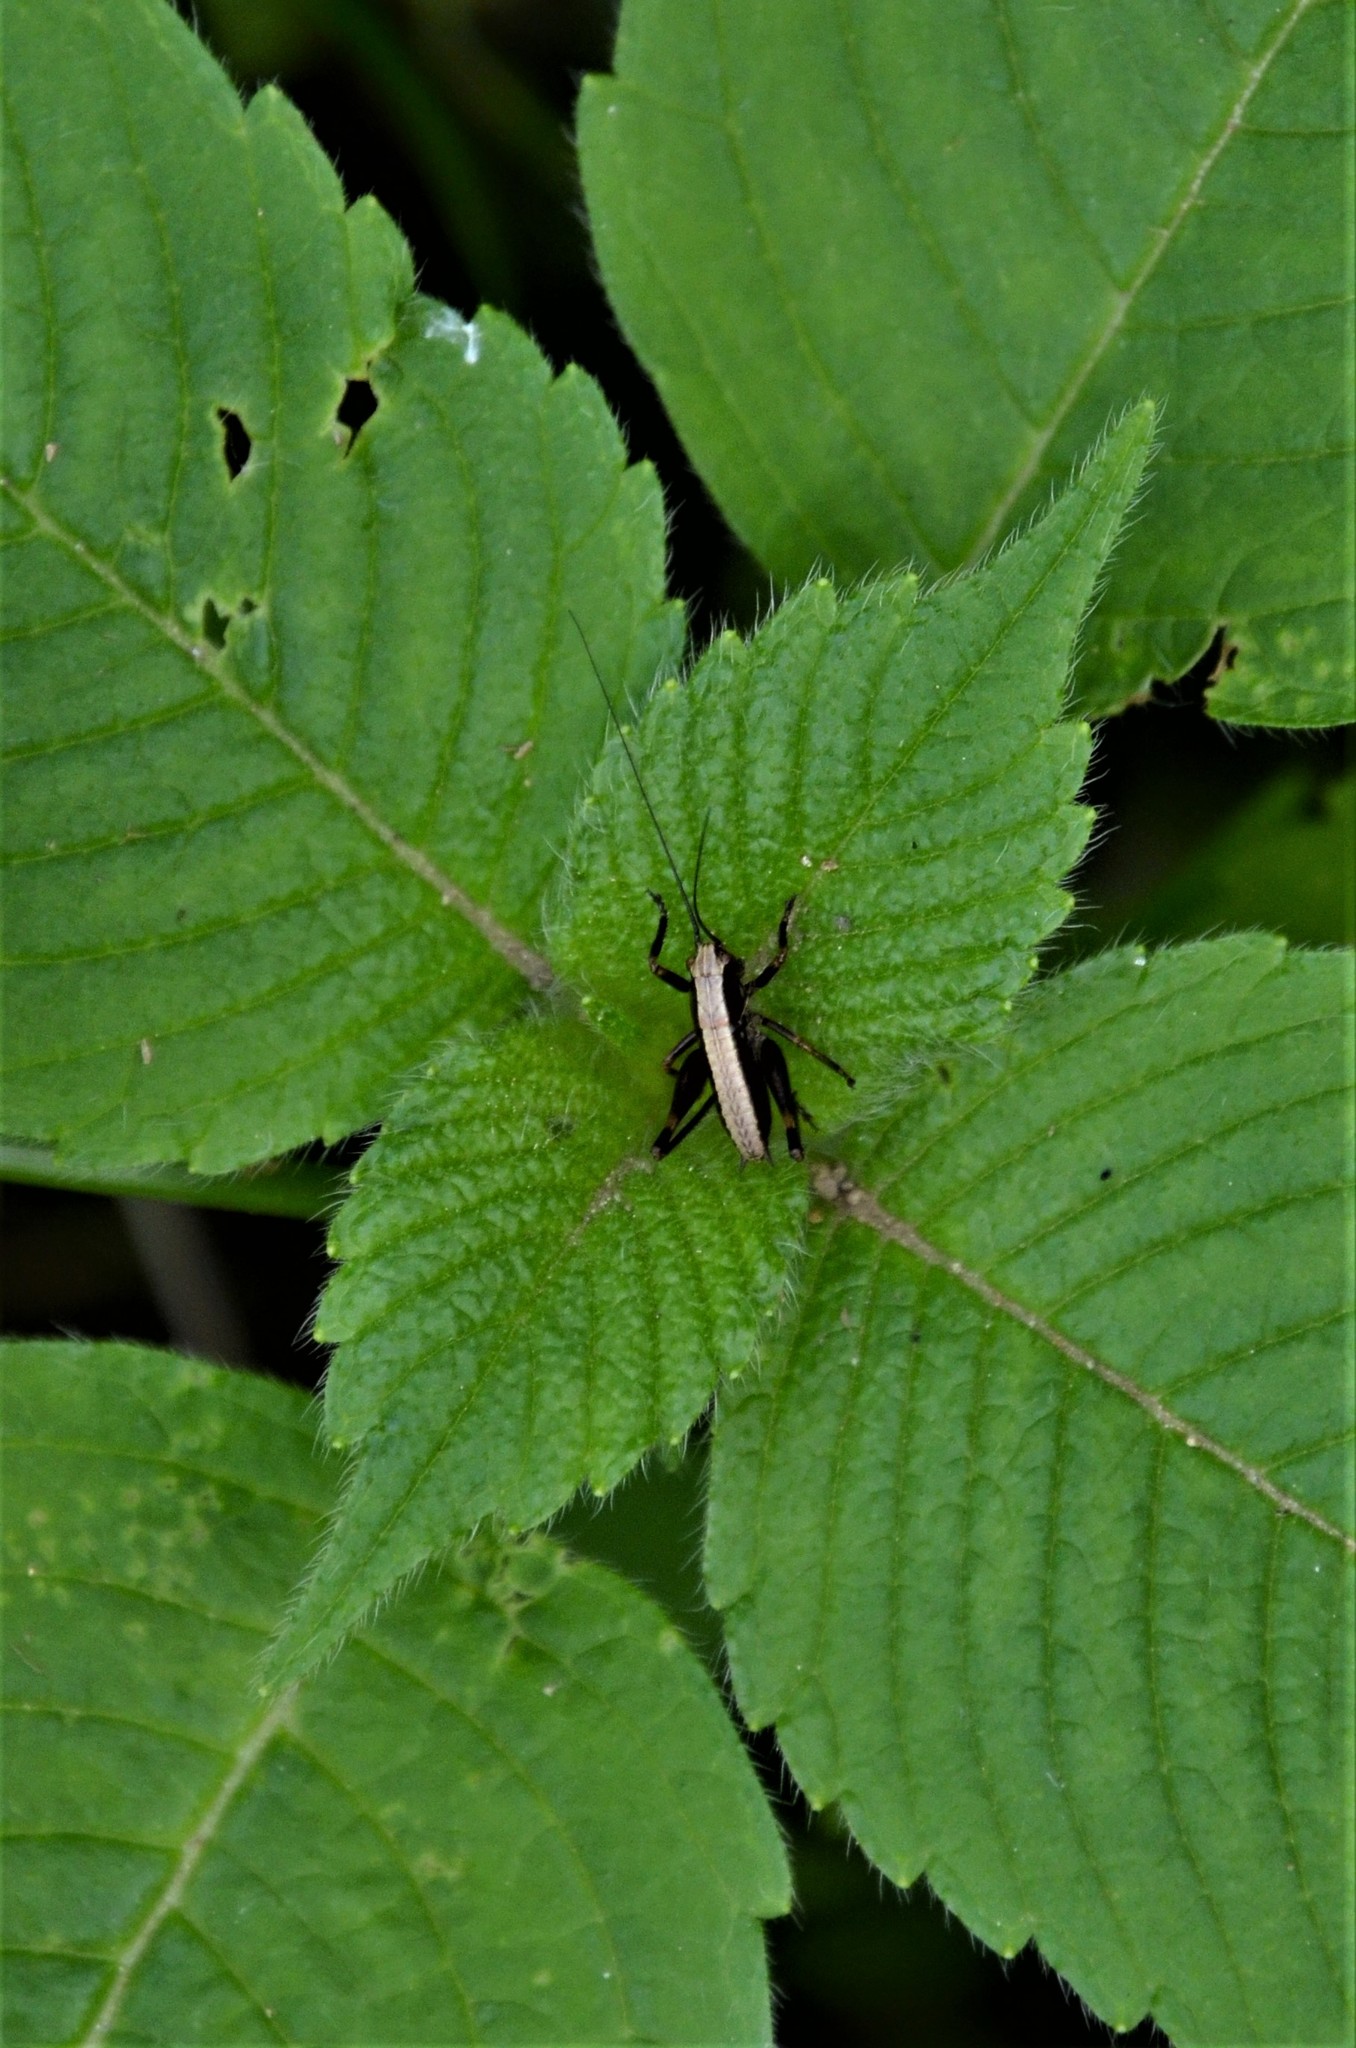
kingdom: Animalia
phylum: Arthropoda
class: Insecta
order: Orthoptera
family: Tettigoniidae
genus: Pholidoptera
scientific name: Pholidoptera griseoaptera
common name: Dark bush-cricket
